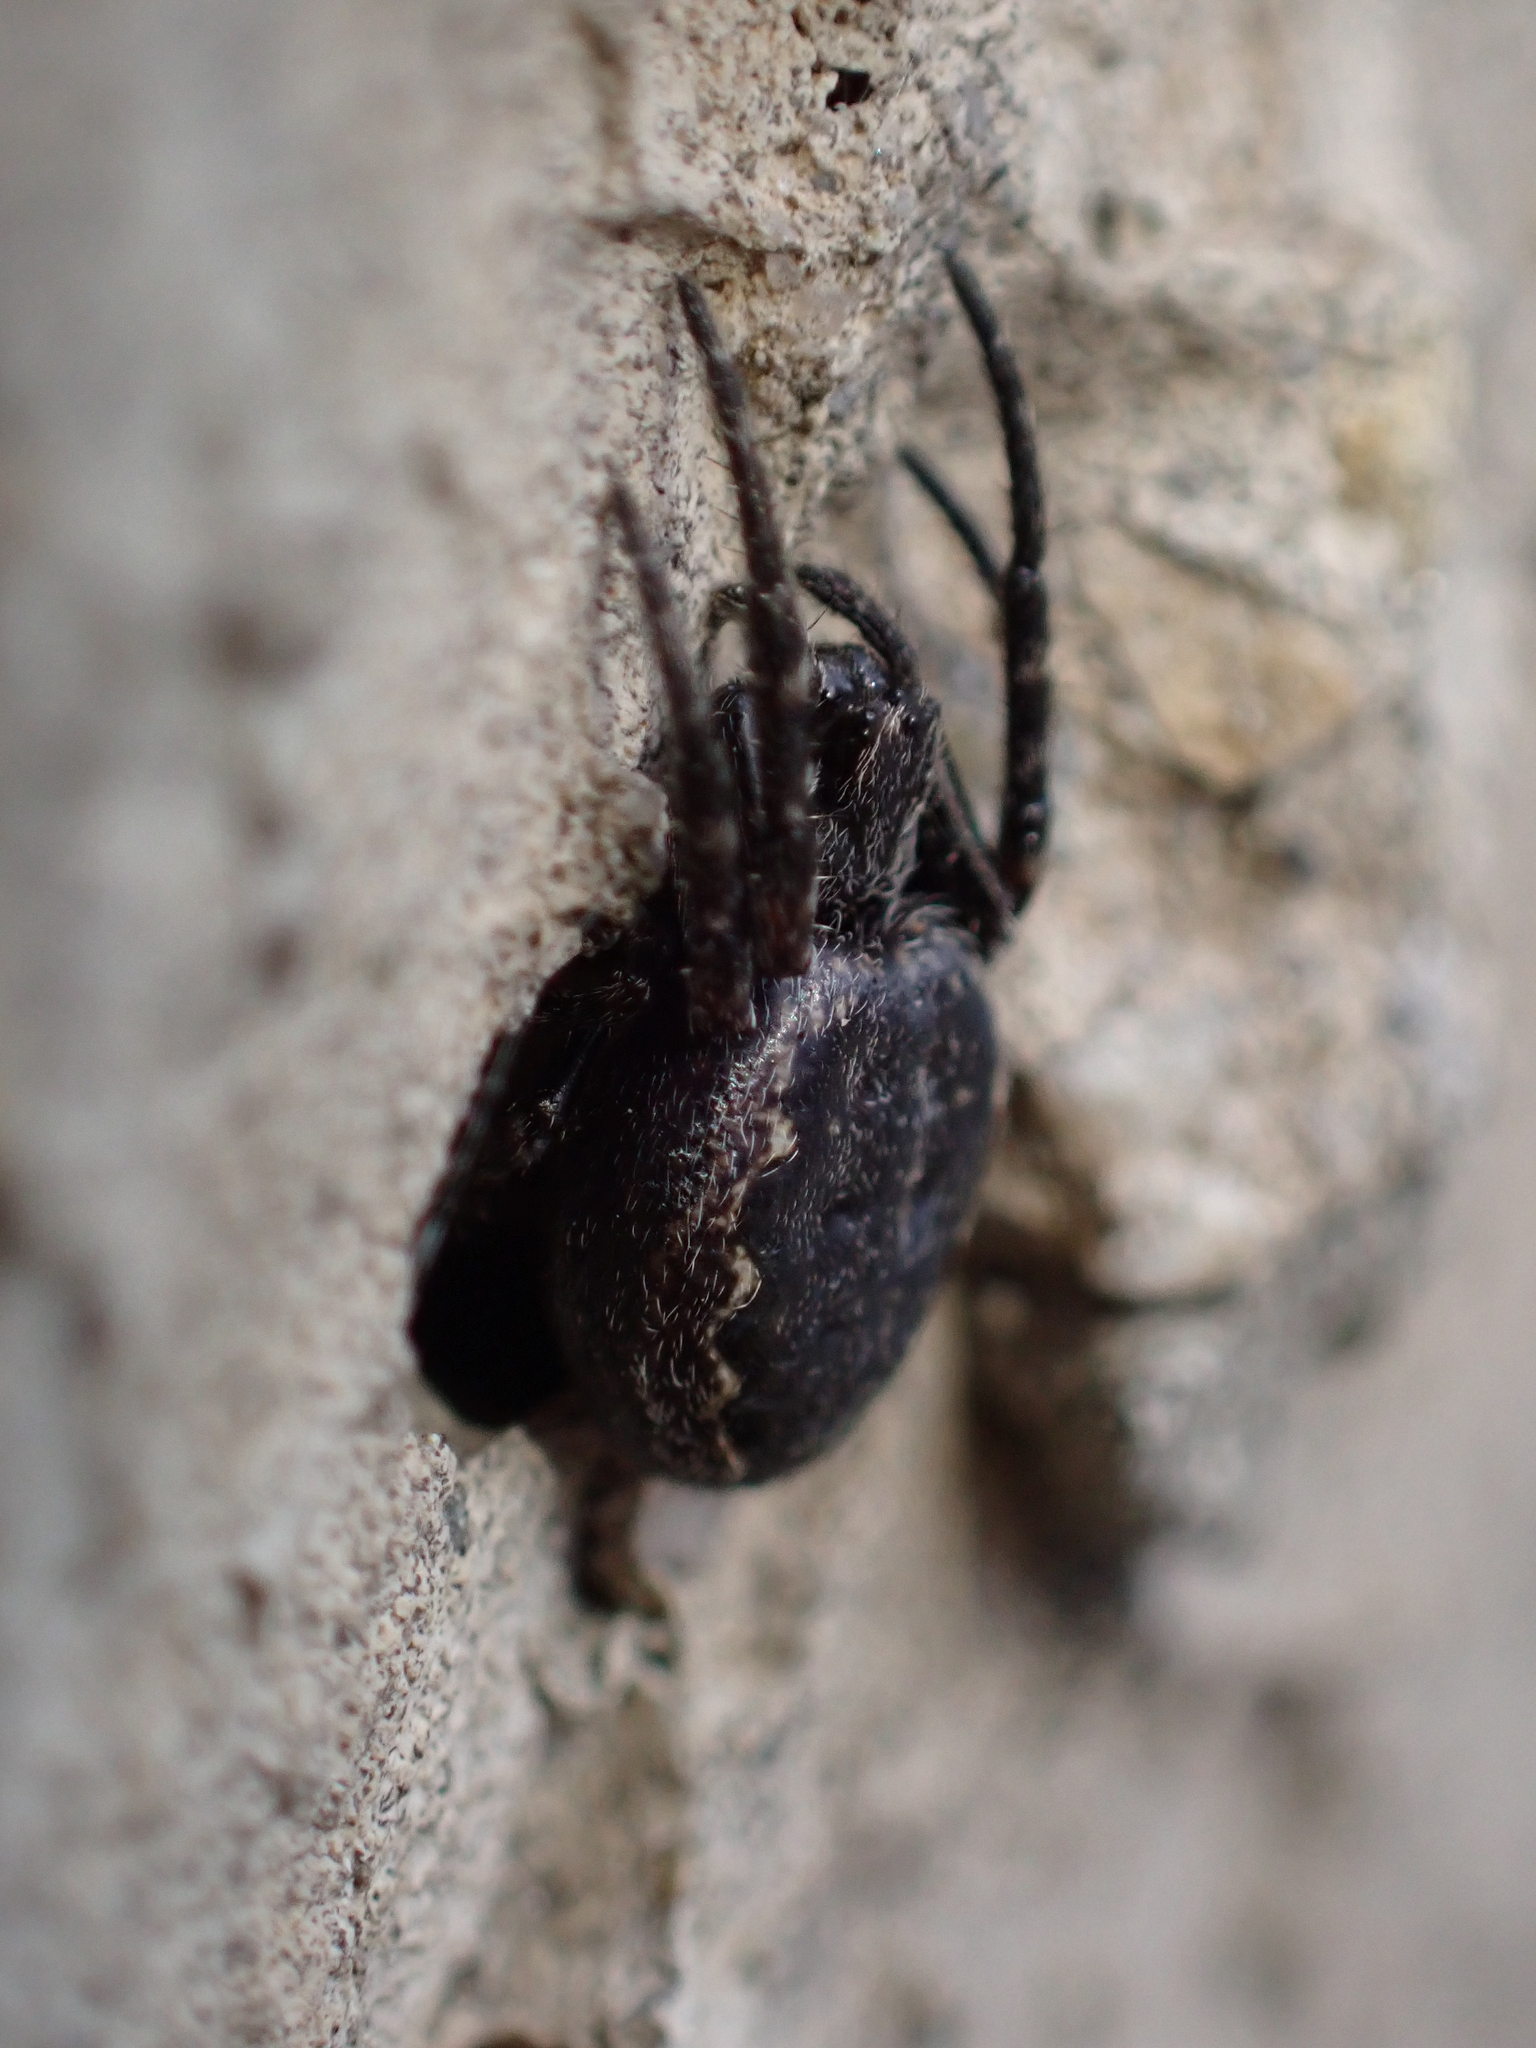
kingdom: Animalia
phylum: Arthropoda
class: Arachnida
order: Araneae
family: Araneidae
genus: Nuctenea
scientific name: Nuctenea umbratica
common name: Toad spider
